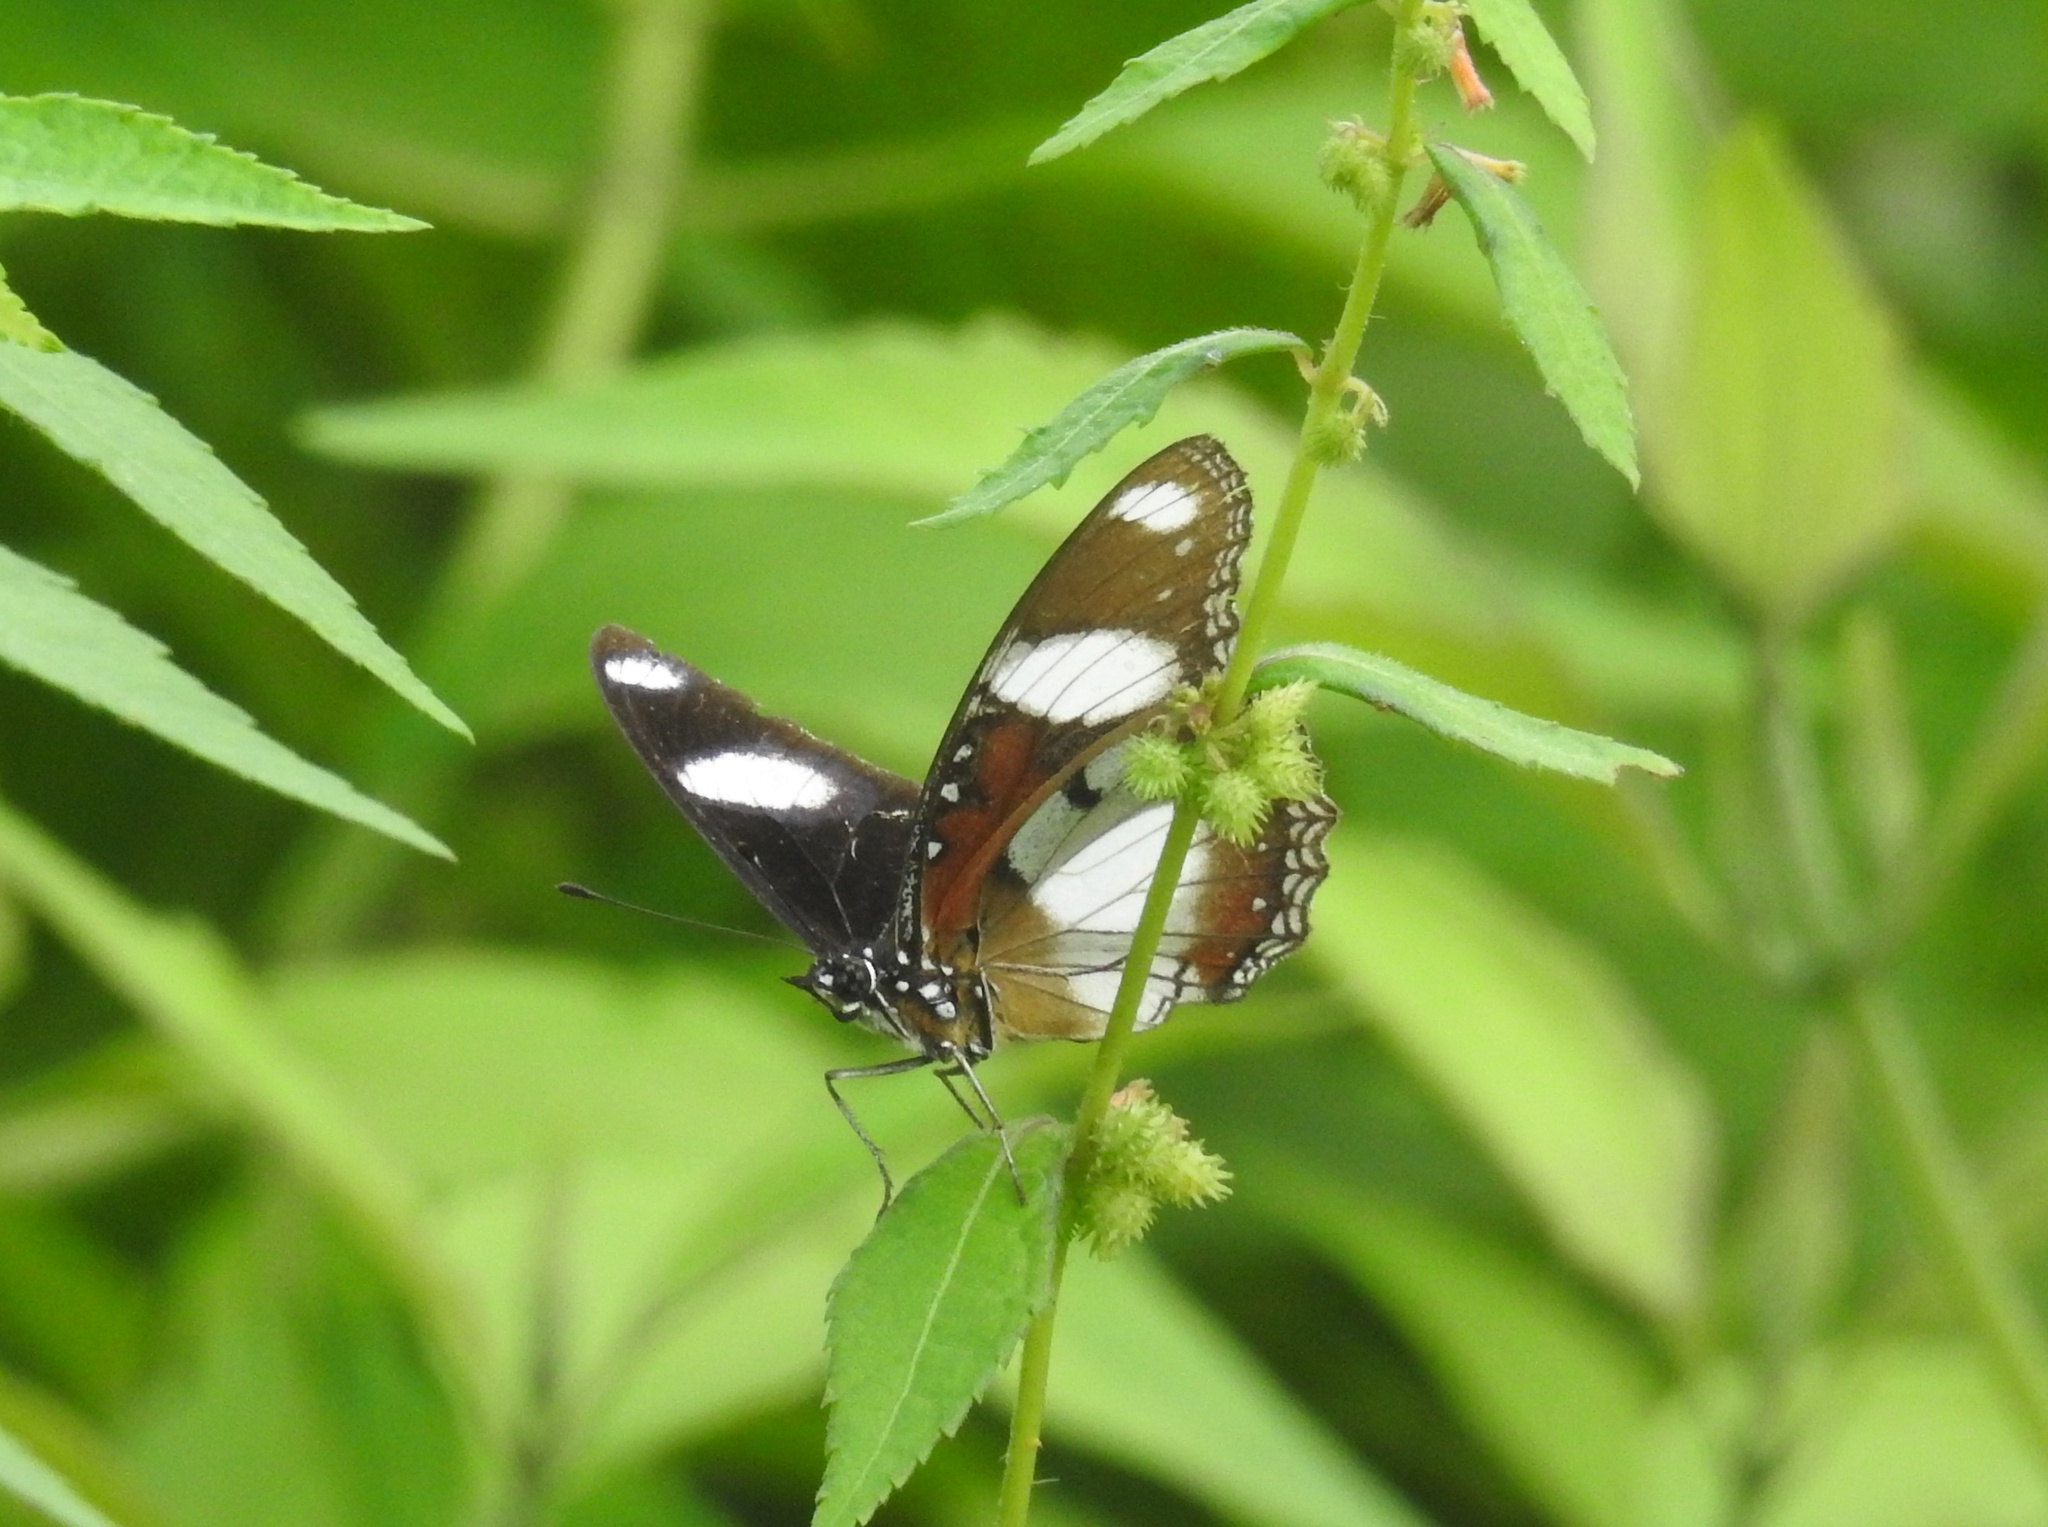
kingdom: Animalia
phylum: Arthropoda
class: Insecta
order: Lepidoptera
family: Nymphalidae
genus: Hypolimnas
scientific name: Hypolimnas misippus
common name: False plain tiger
